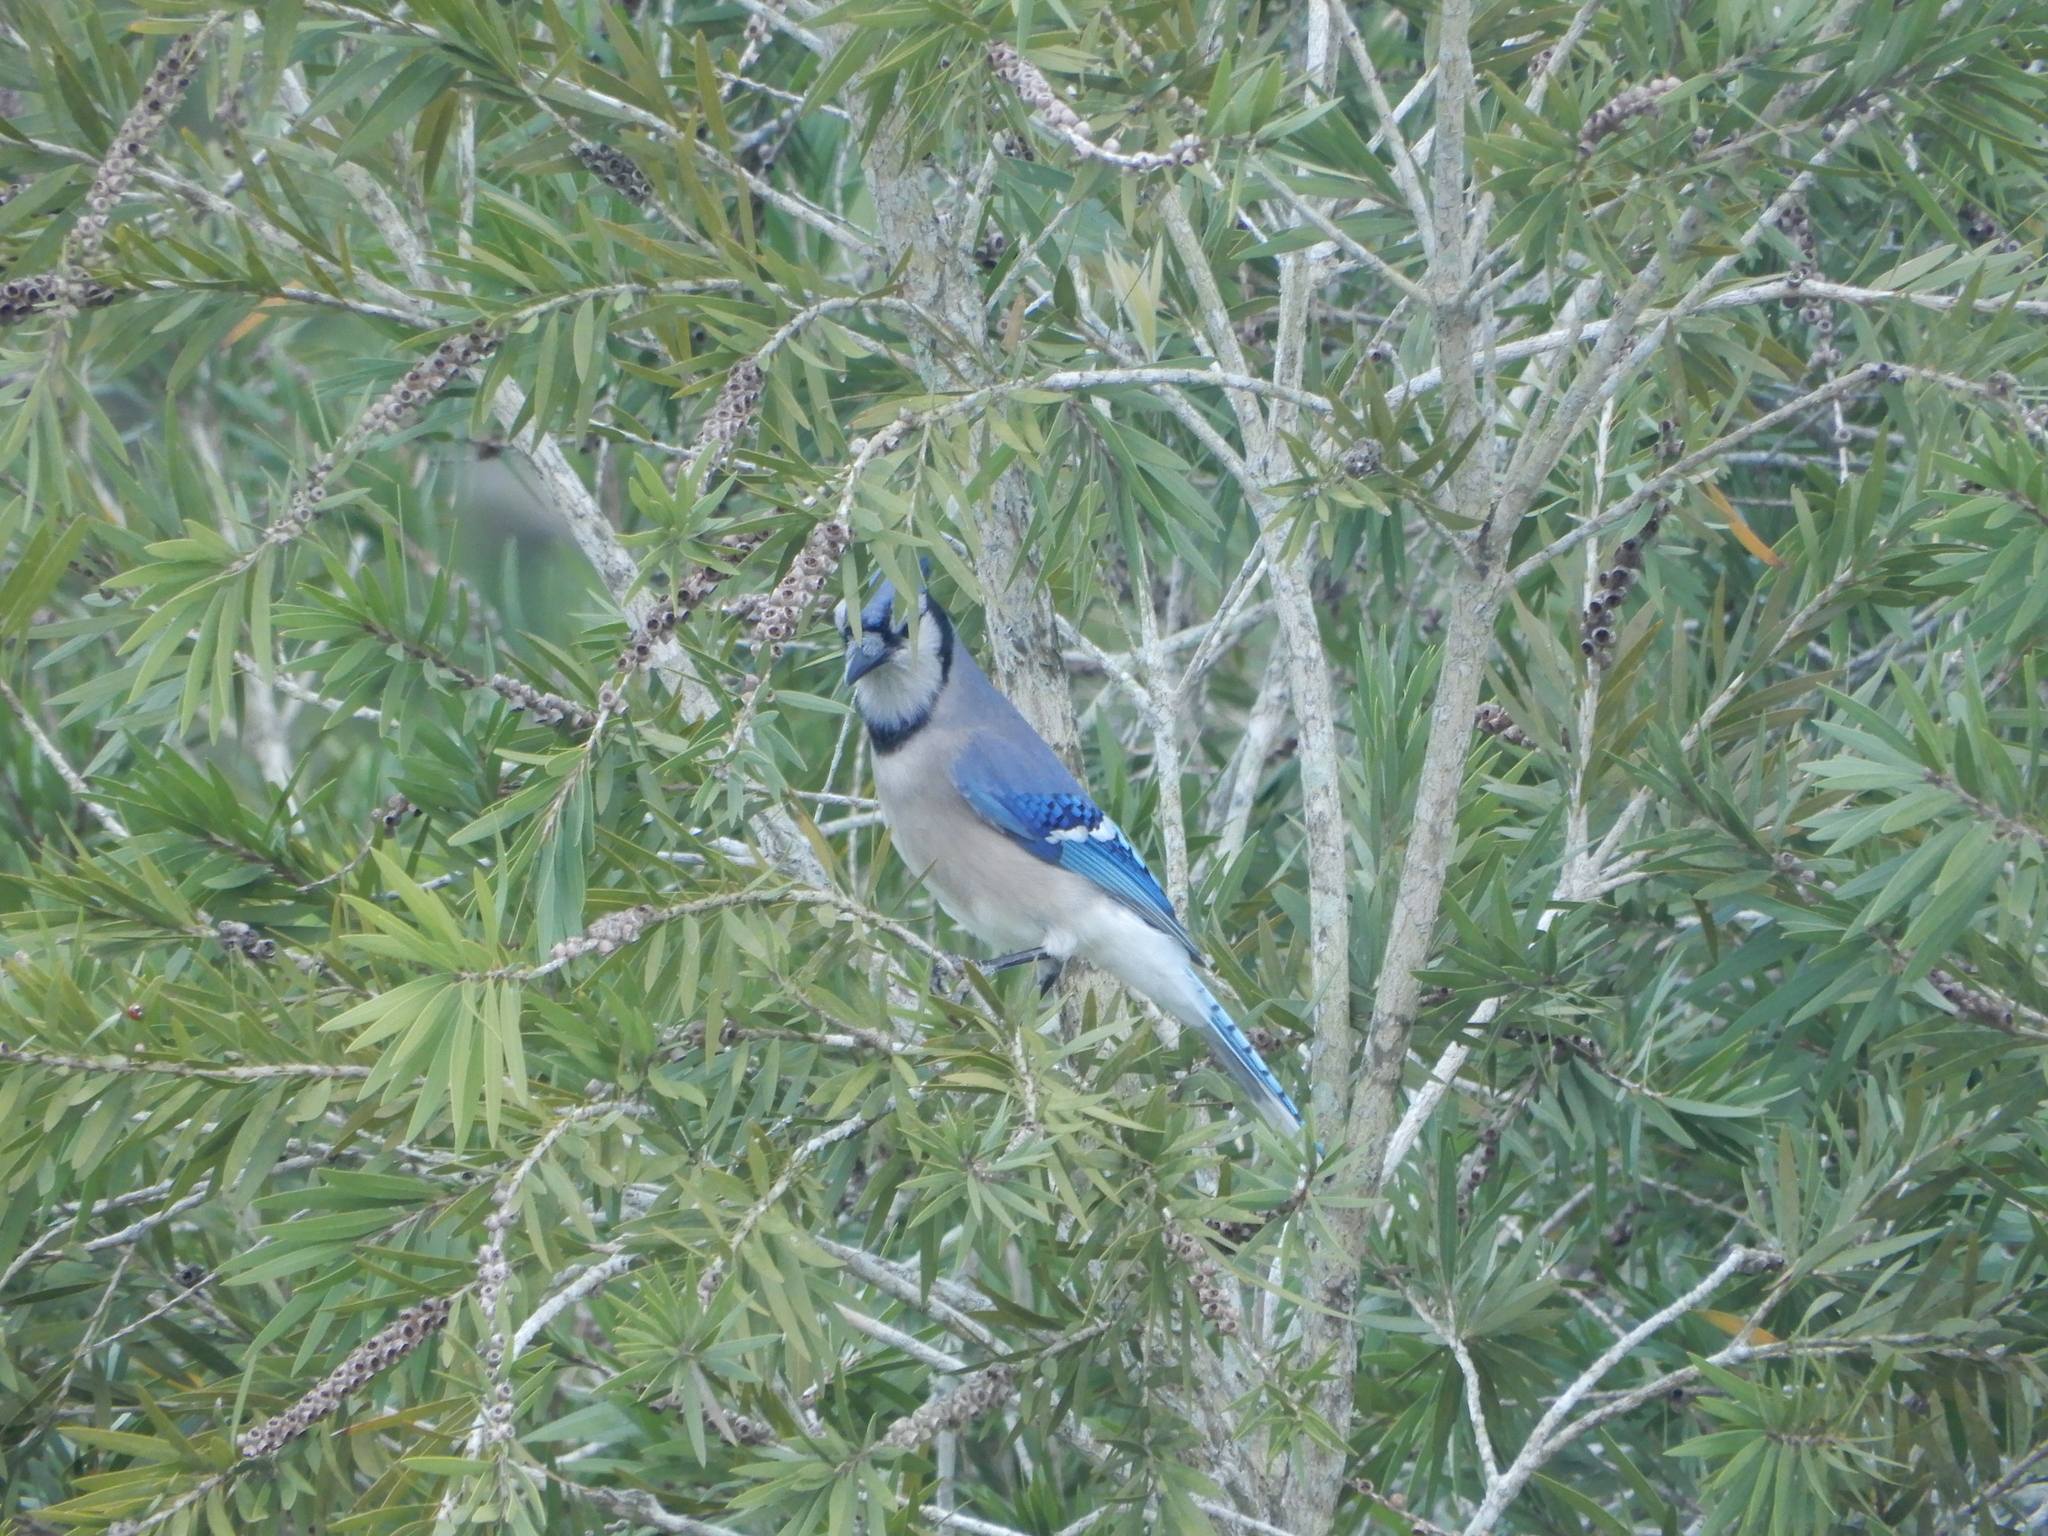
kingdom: Animalia
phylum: Chordata
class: Aves
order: Passeriformes
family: Corvidae
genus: Cyanocitta
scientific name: Cyanocitta cristata
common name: Blue jay
